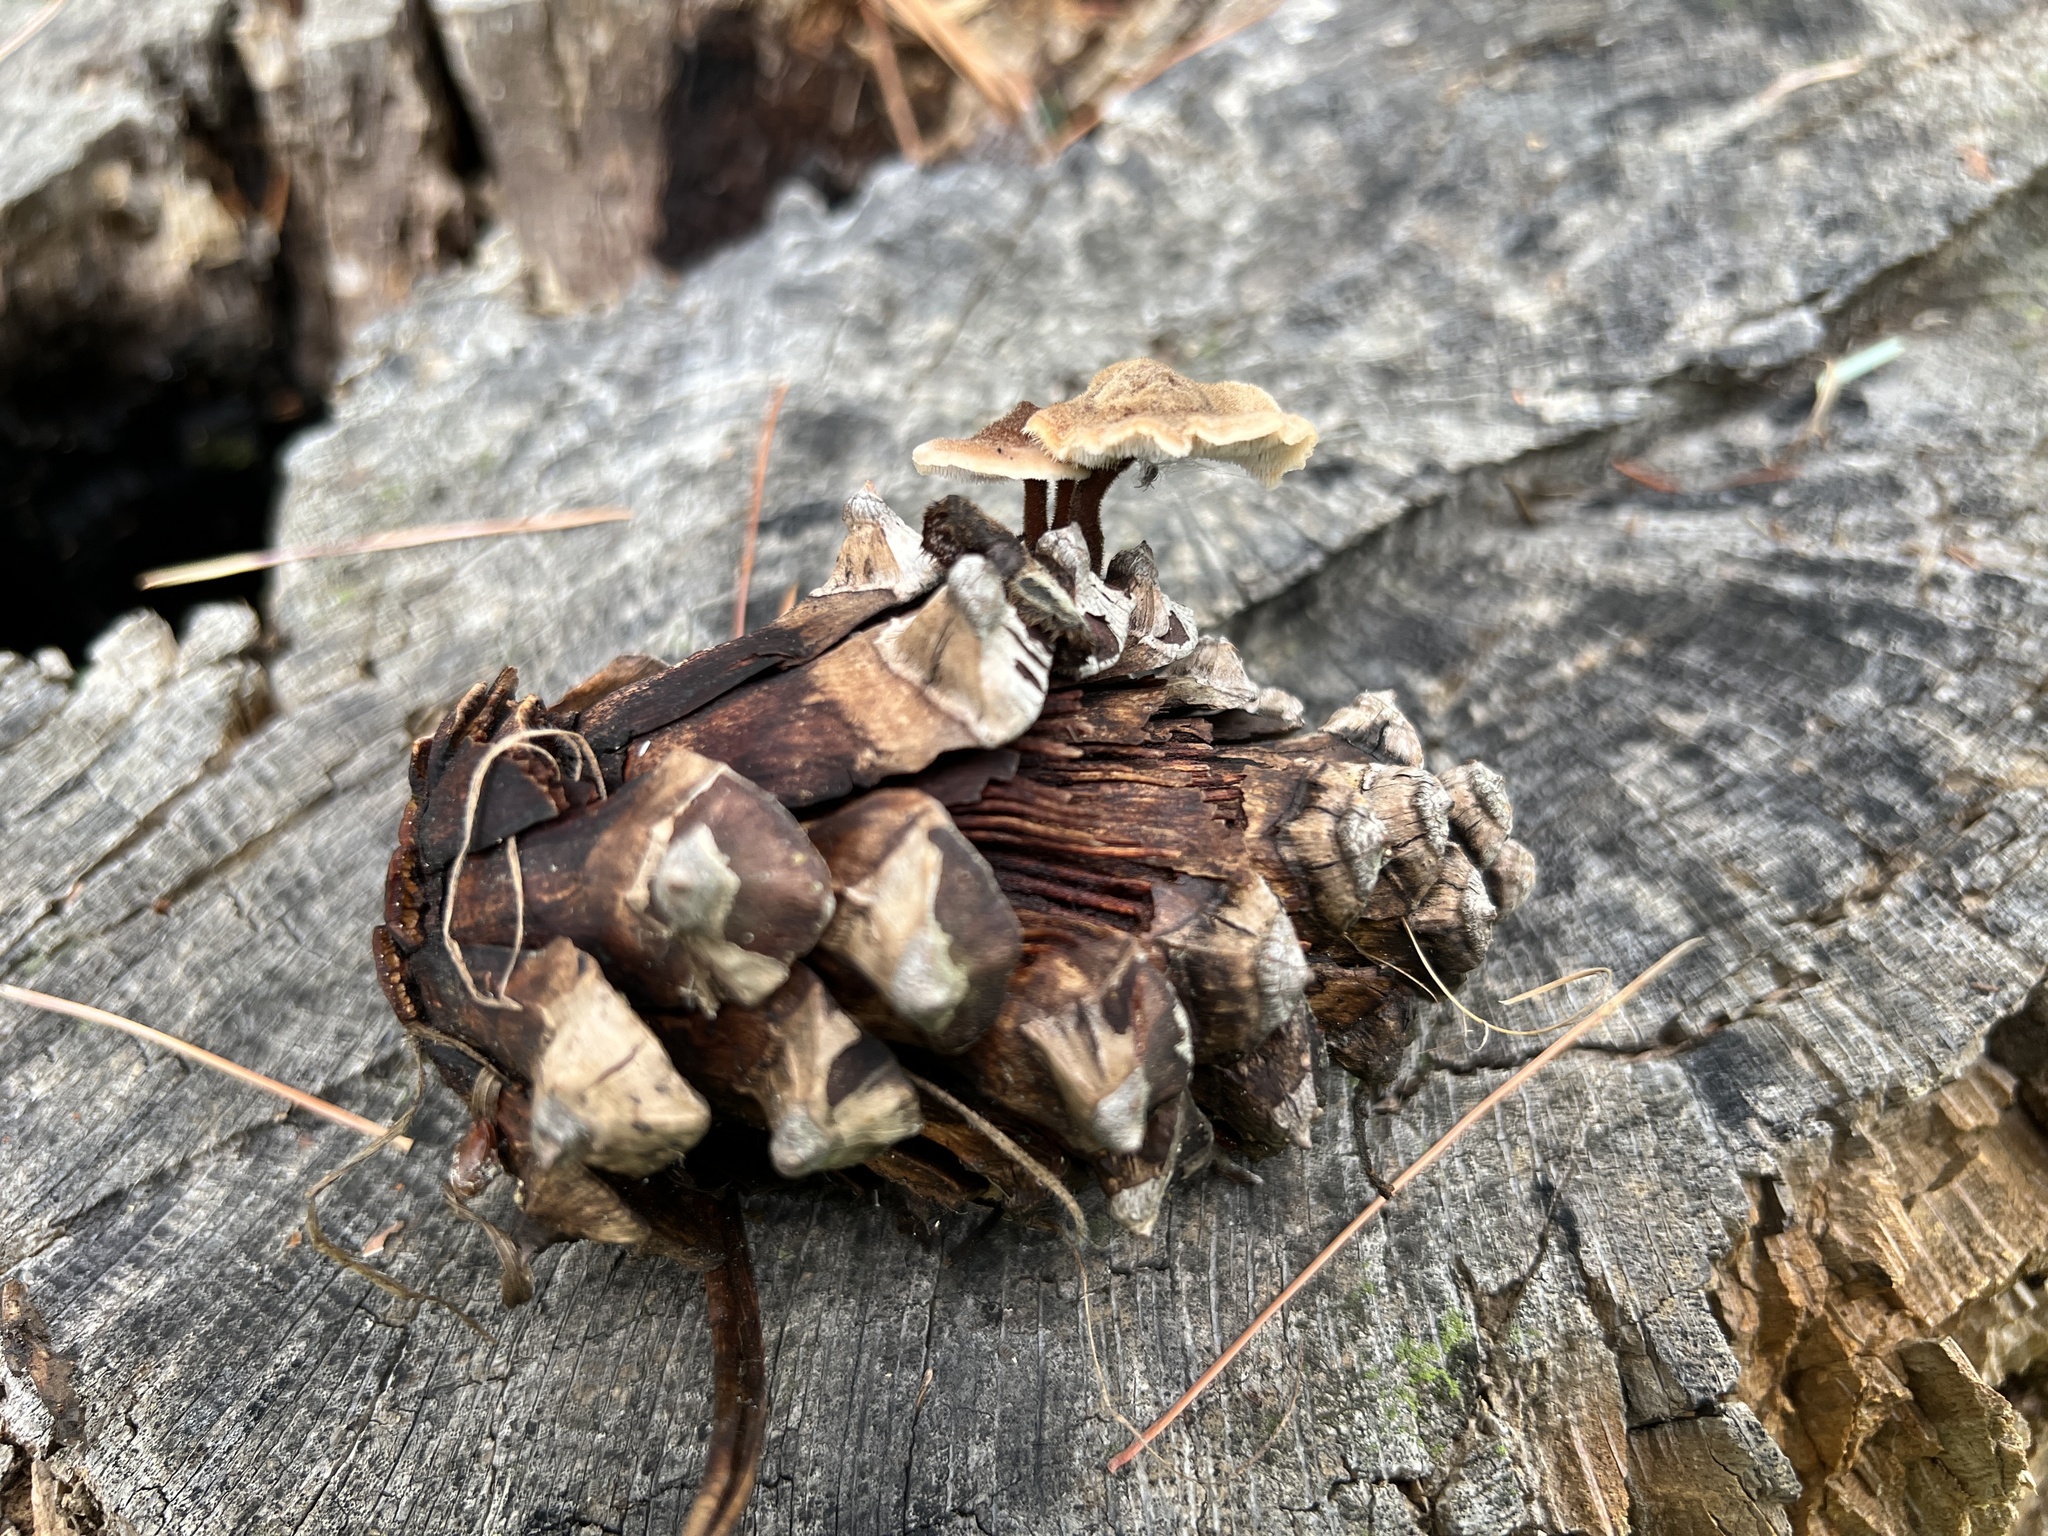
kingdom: Fungi
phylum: Basidiomycota
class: Agaricomycetes
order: Russulales
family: Auriscalpiaceae
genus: Auriscalpium
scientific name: Auriscalpium vulgare
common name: Earpick fungus
